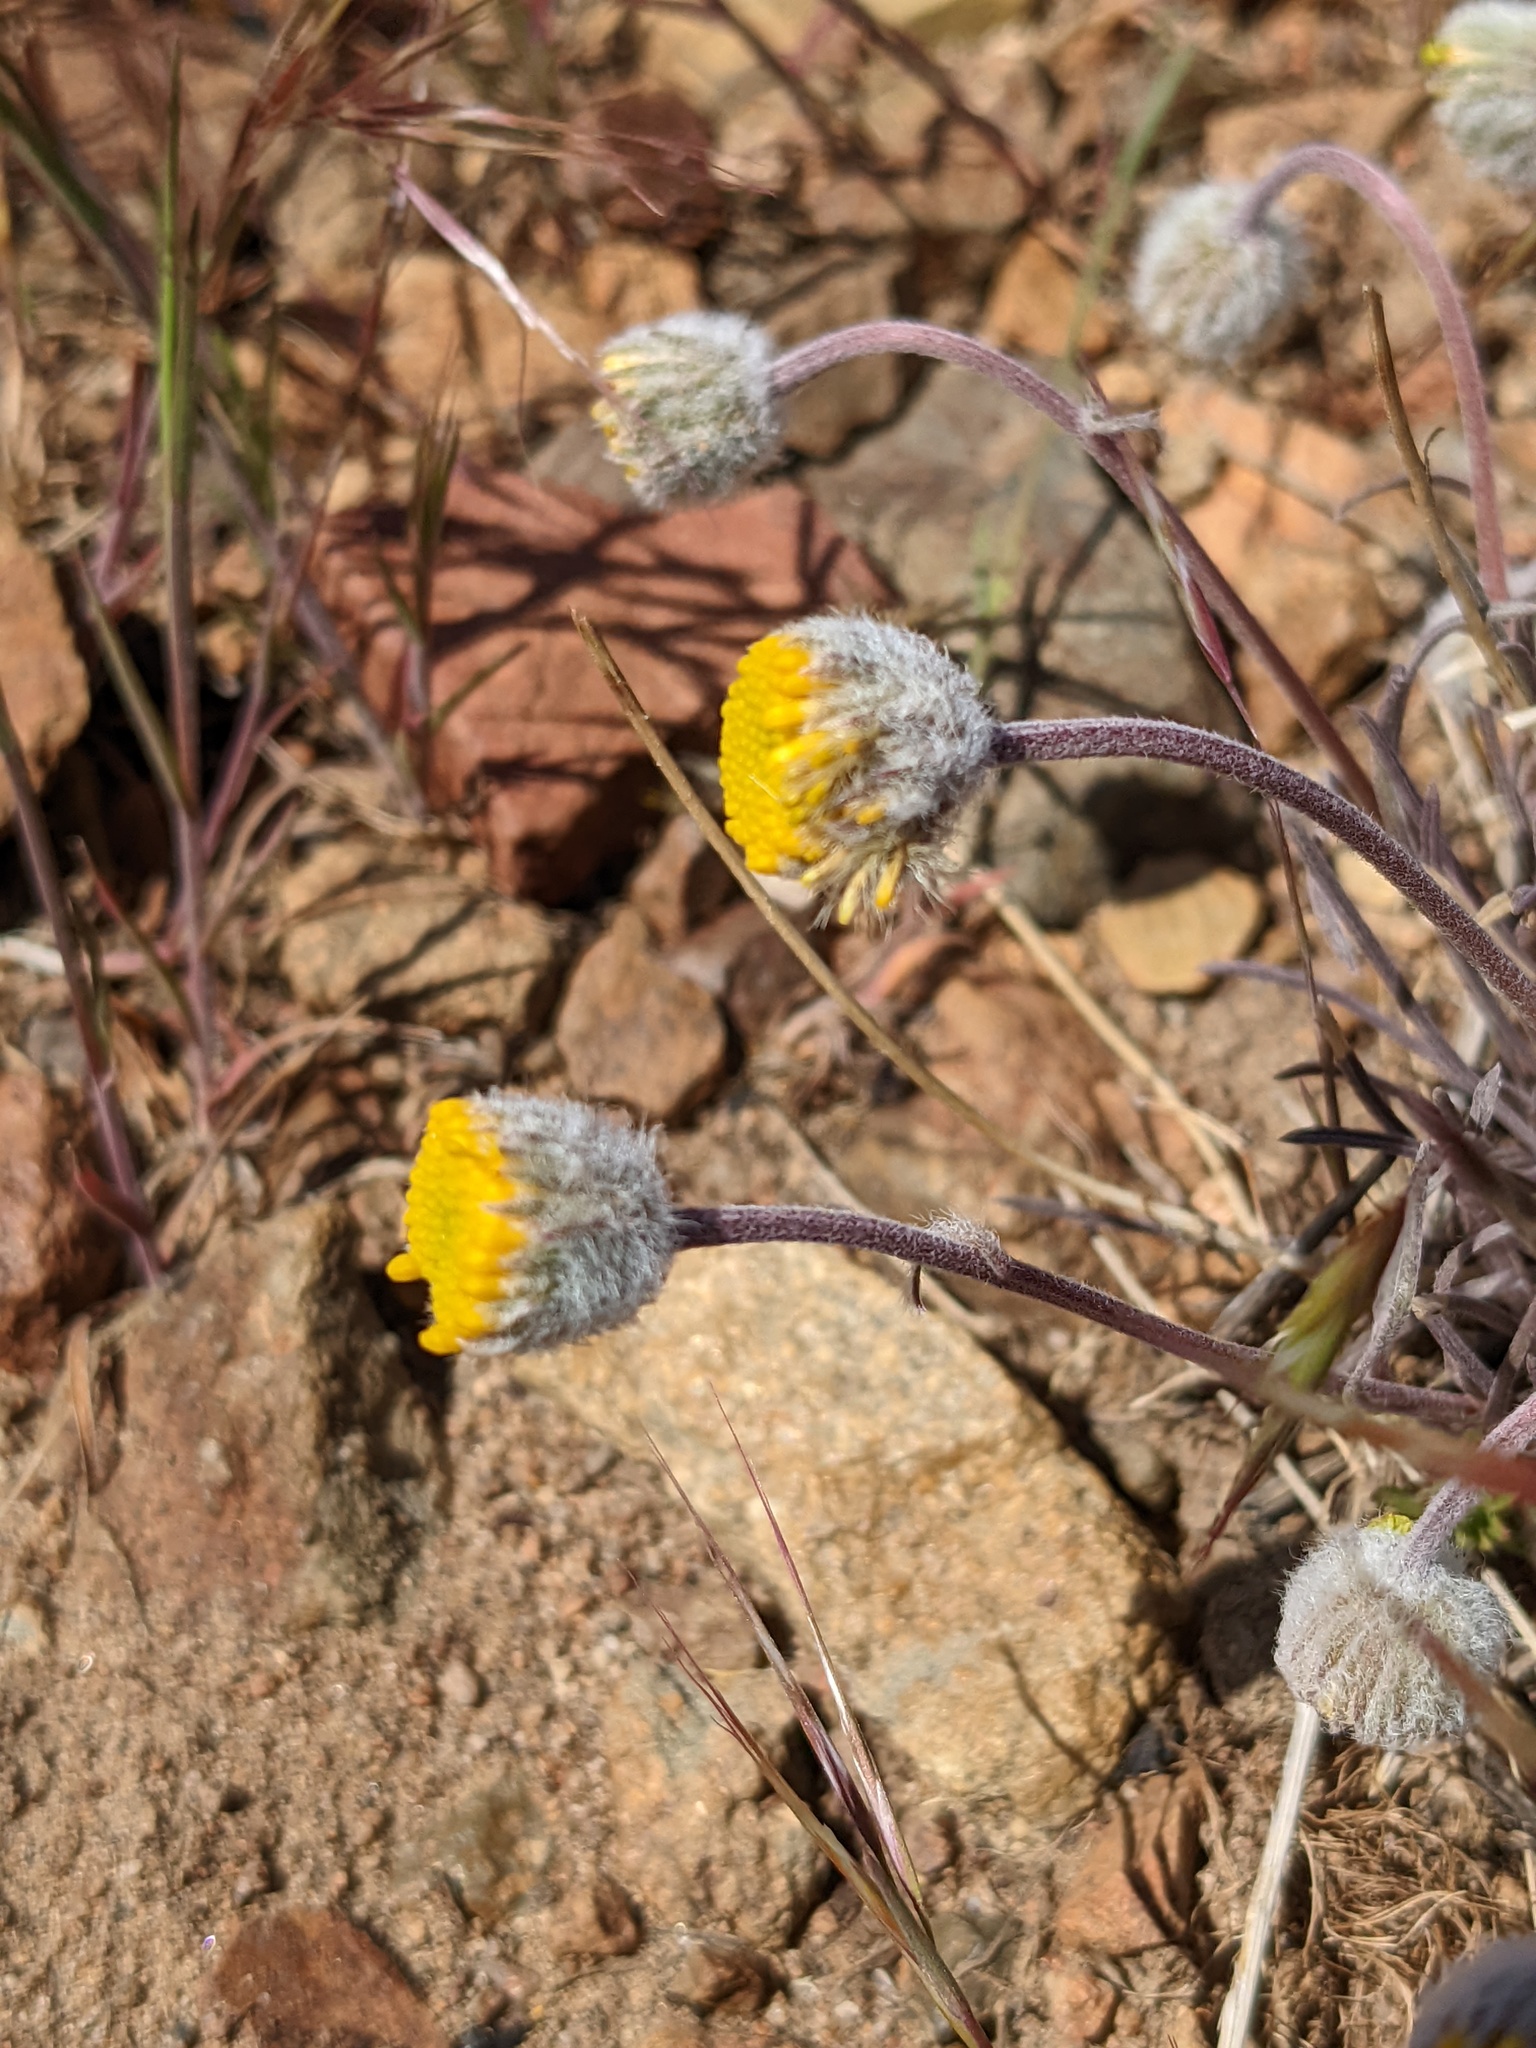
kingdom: Plantae
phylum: Tracheophyta
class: Magnoliopsida
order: Asterales
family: Asteraceae
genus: Erigeron
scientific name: Erigeron bloomeri
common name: Bloomer's fleabane
